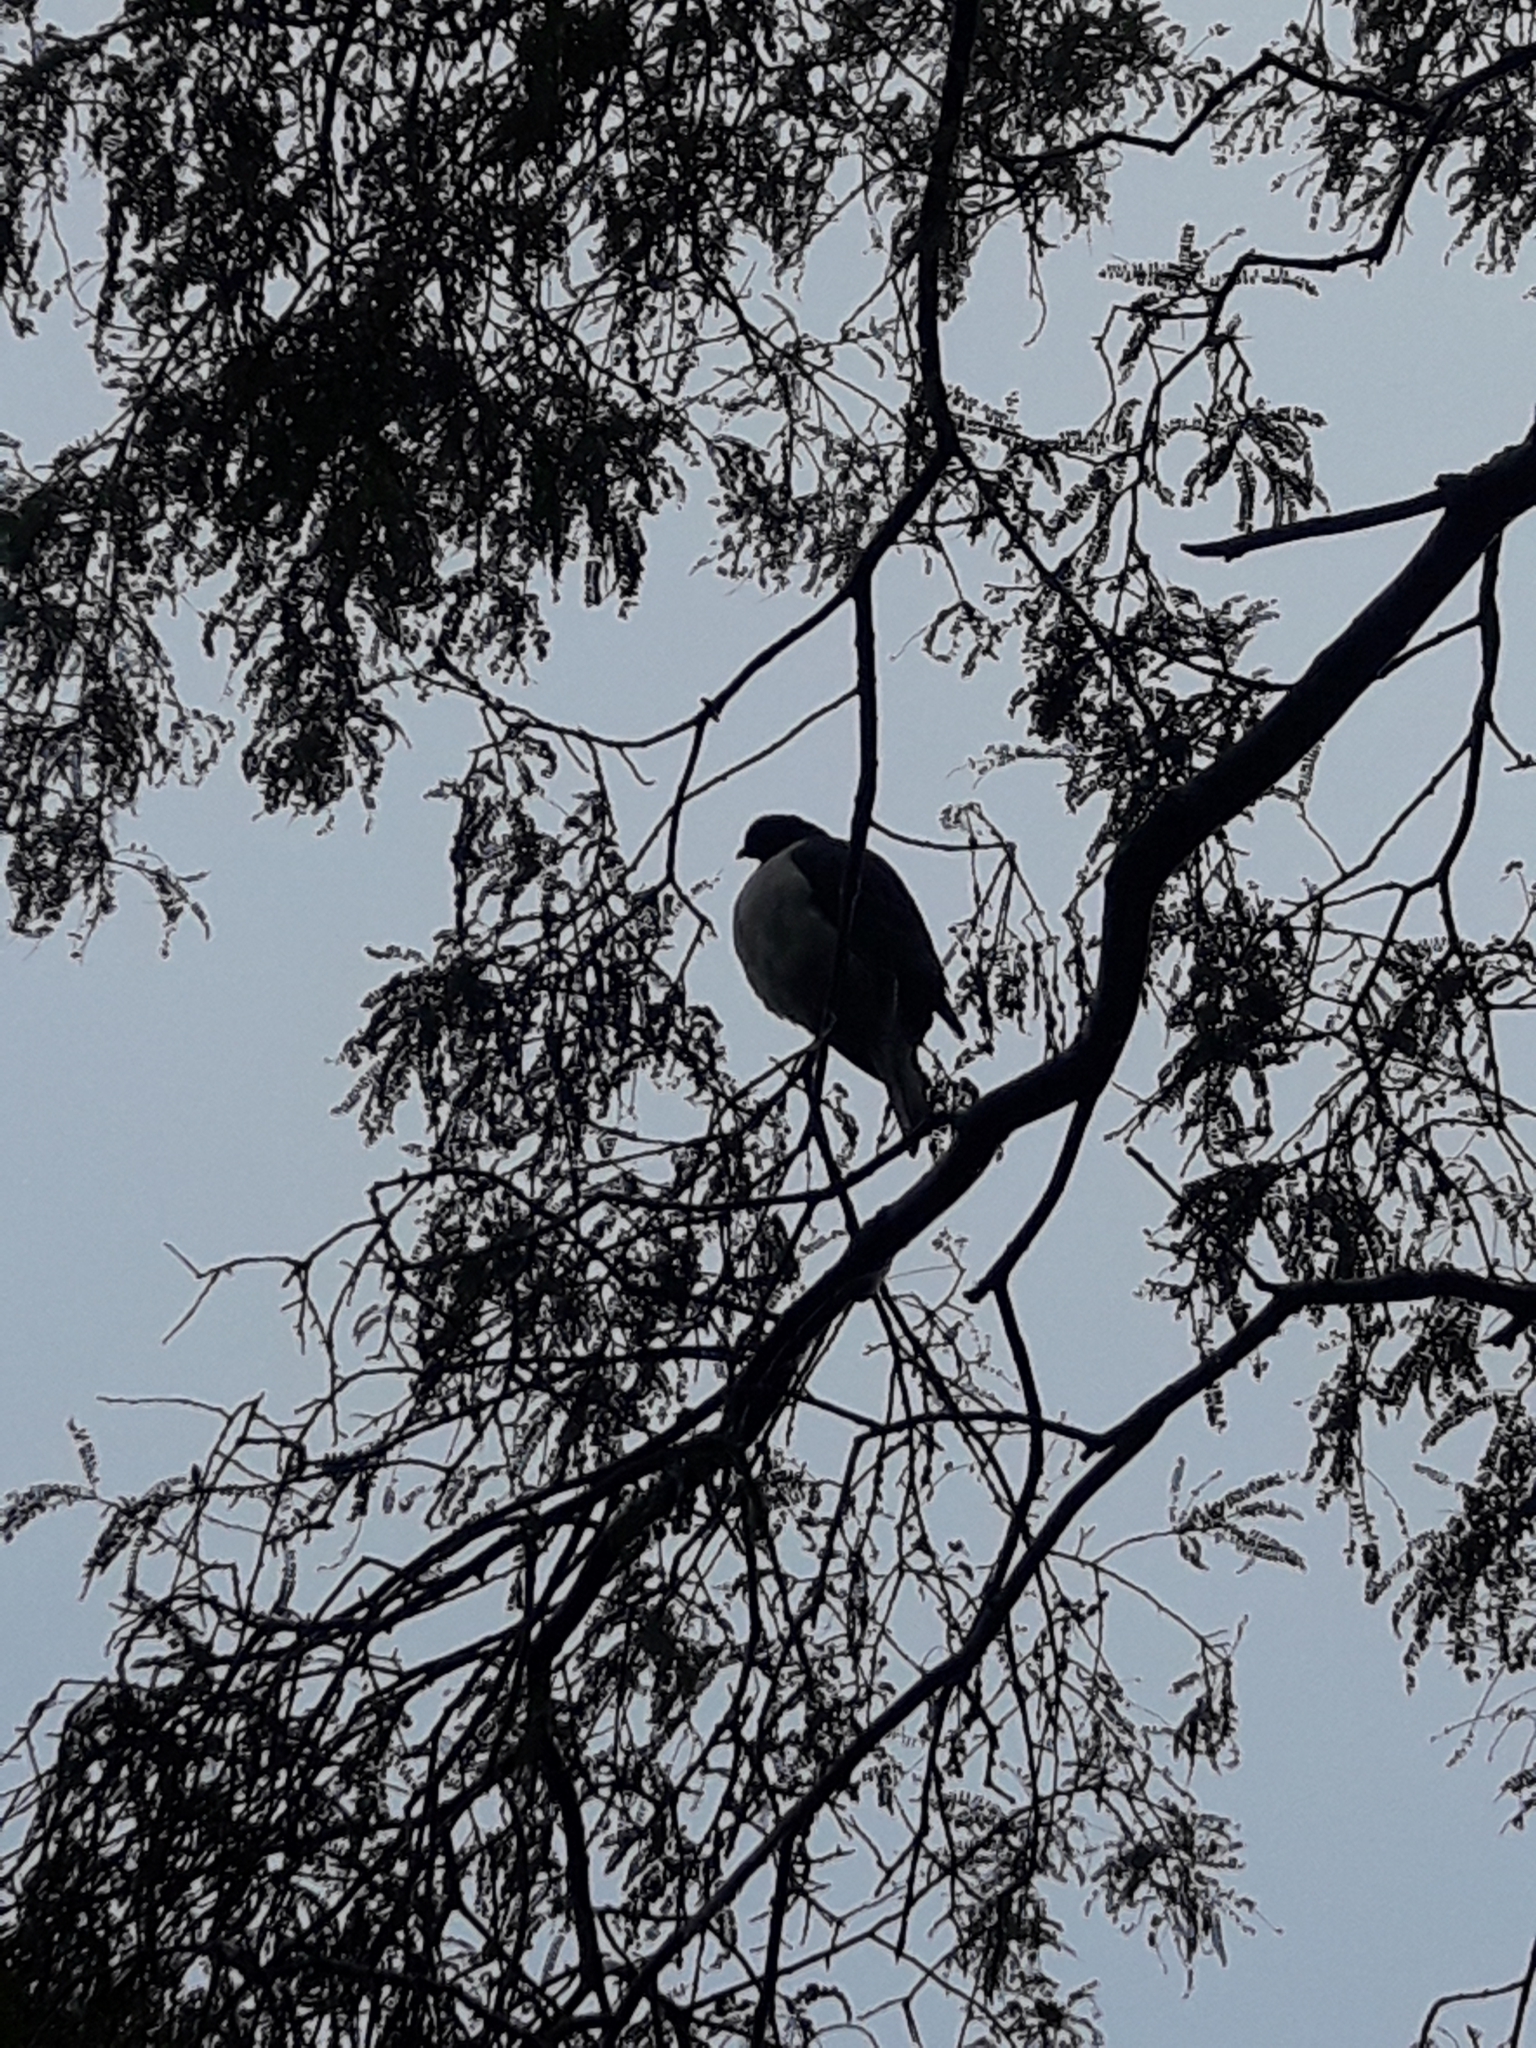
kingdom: Animalia
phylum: Chordata
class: Aves
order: Columbiformes
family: Columbidae
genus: Hemiphaga
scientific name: Hemiphaga novaeseelandiae
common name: New zealand pigeon
